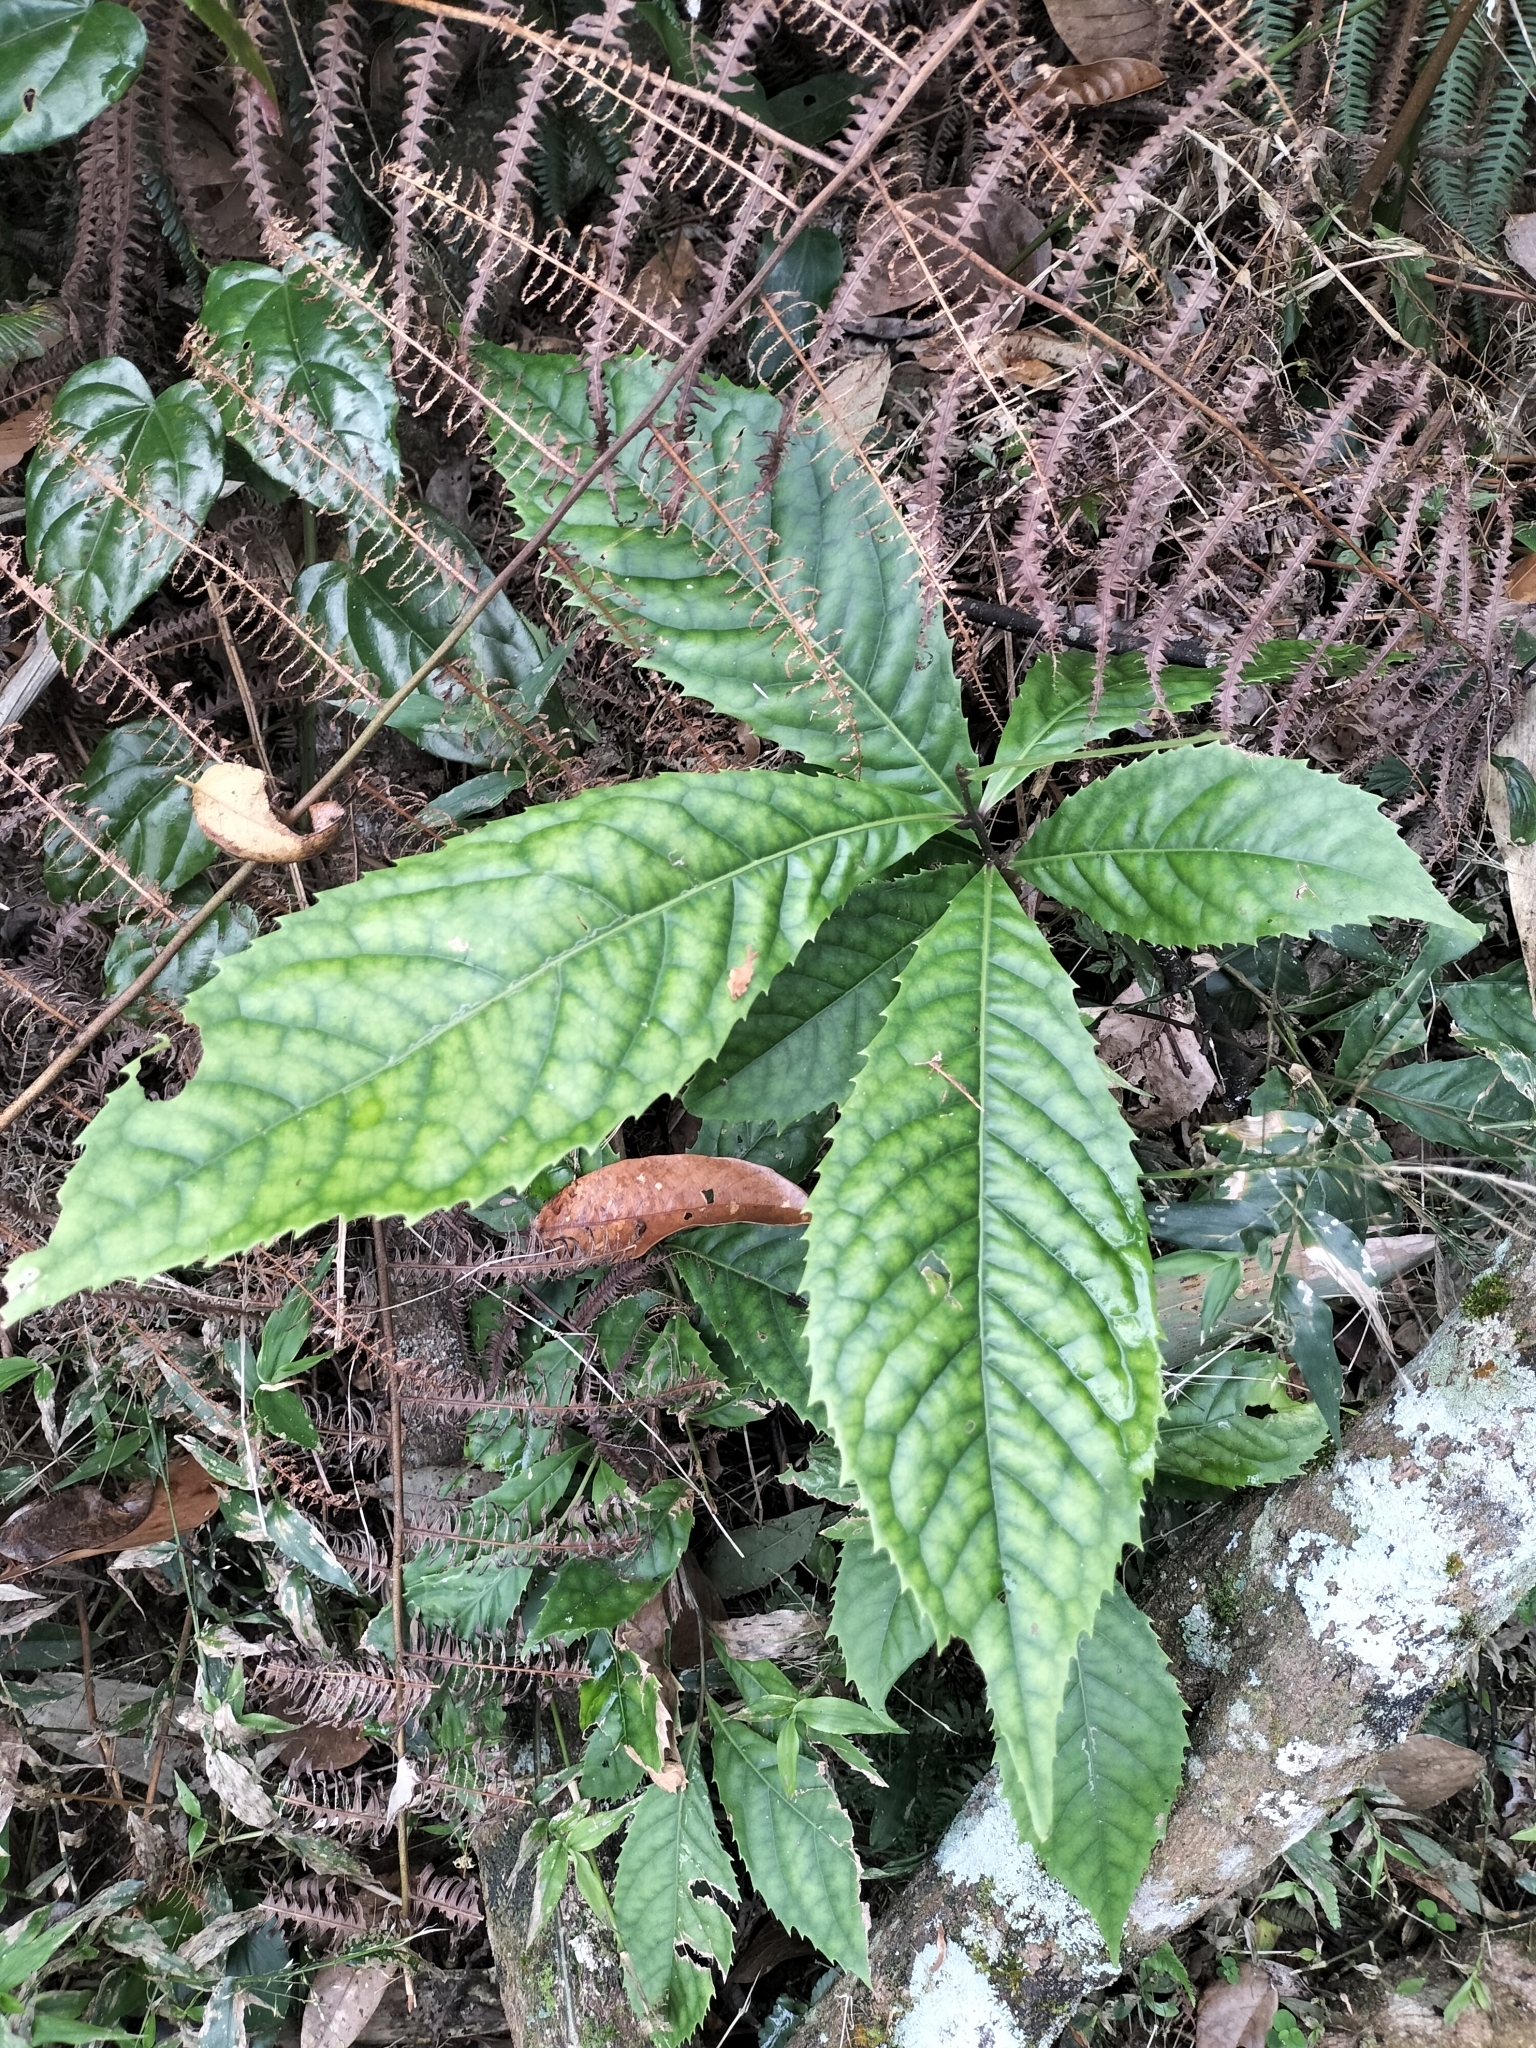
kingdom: Plantae
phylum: Tracheophyta
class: Magnoliopsida
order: Proteales
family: Proteaceae
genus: Helicia
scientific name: Helicia formosana
